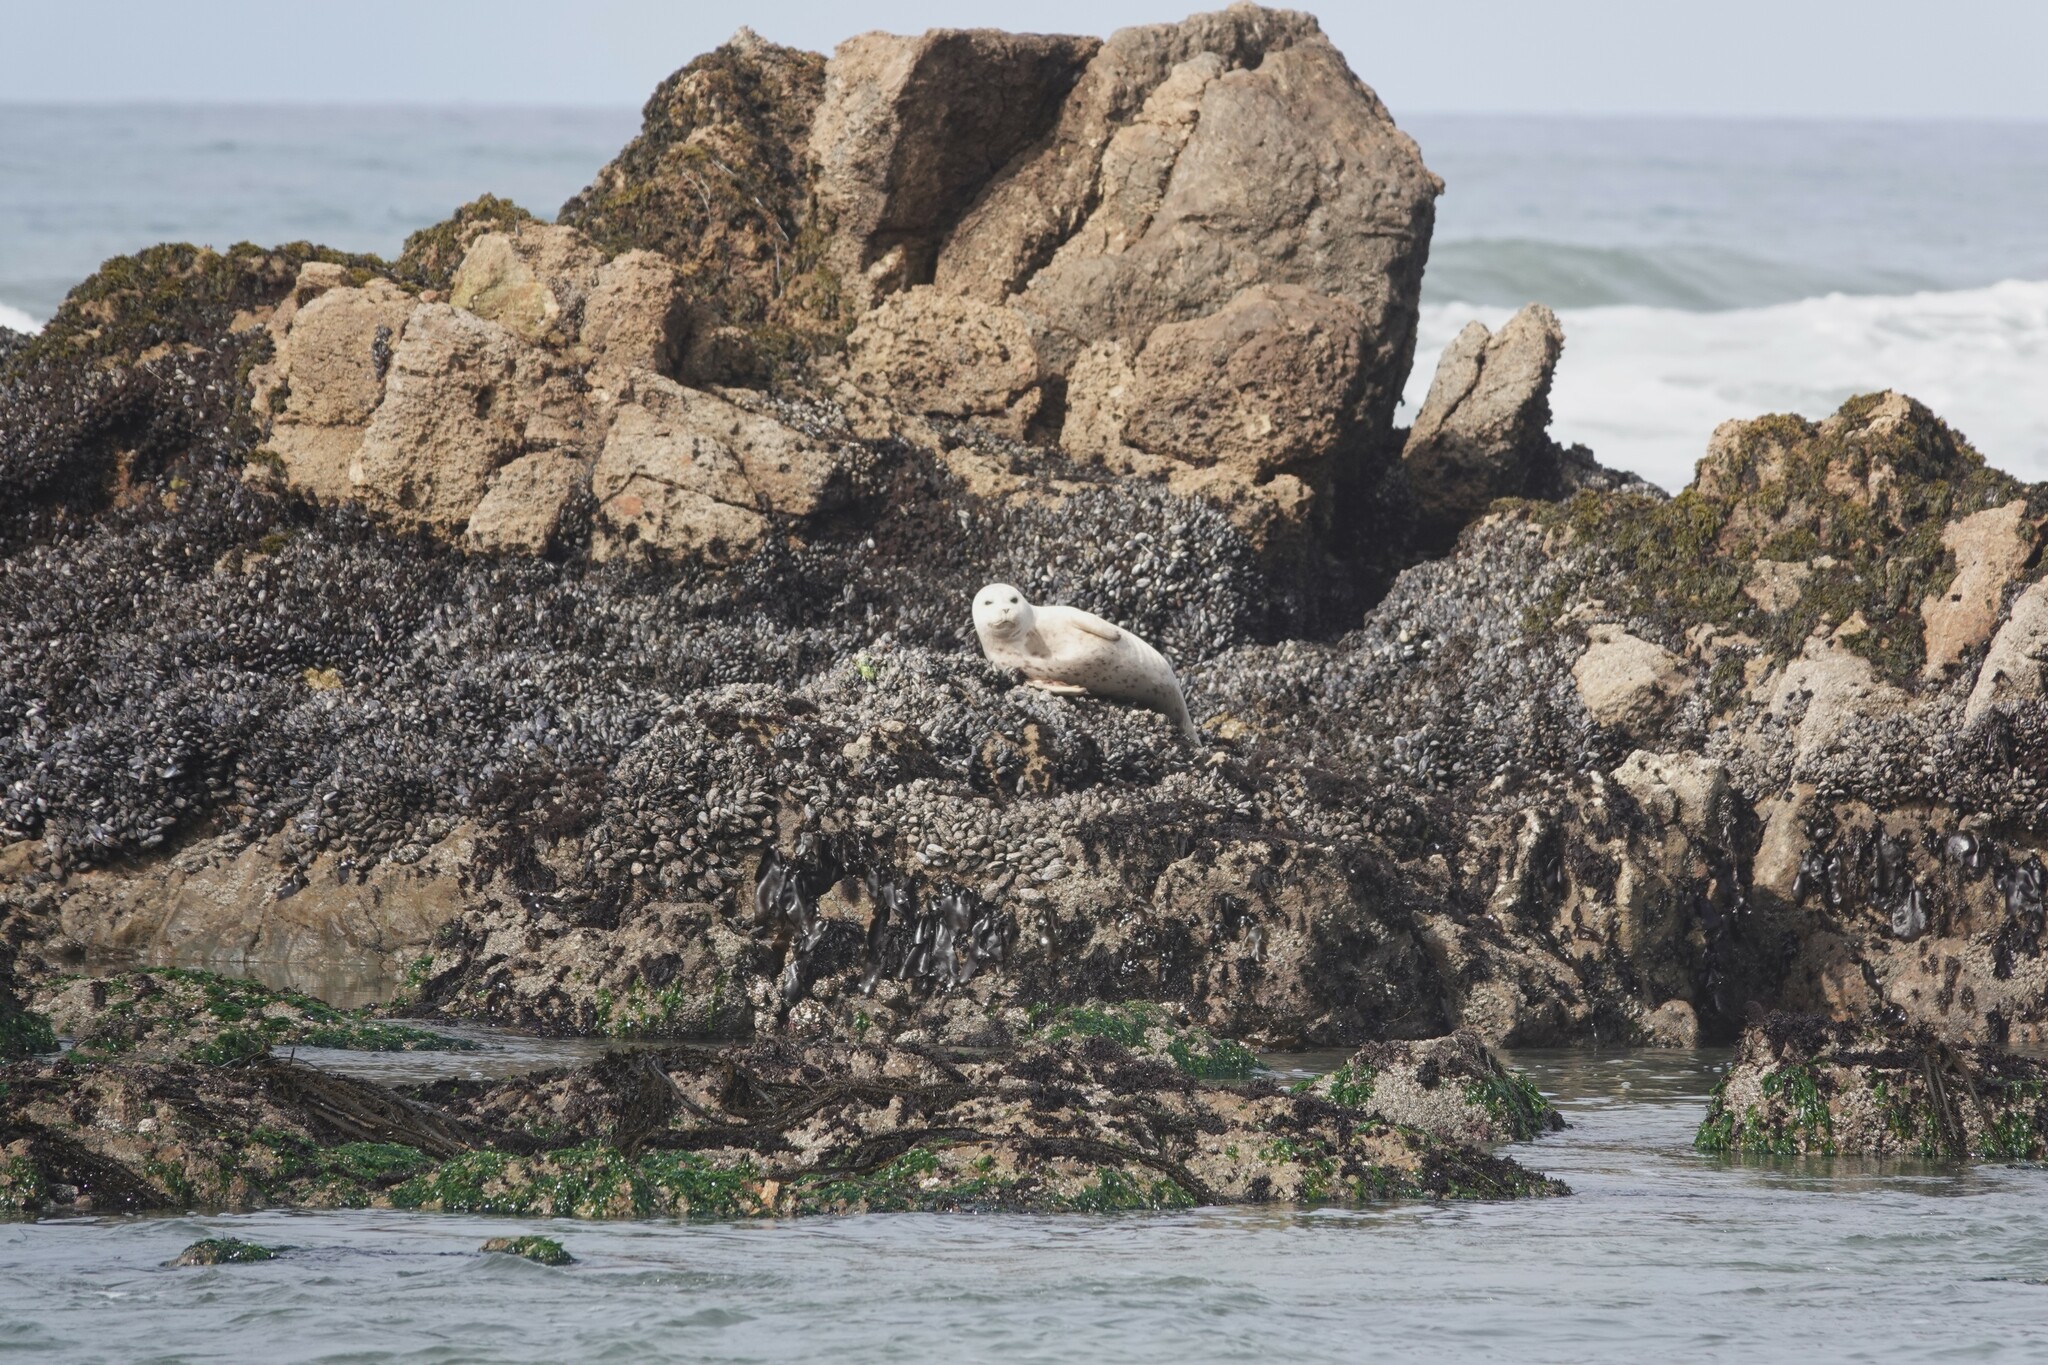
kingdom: Animalia
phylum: Chordata
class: Mammalia
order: Carnivora
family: Phocidae
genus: Phoca
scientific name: Phoca vitulina
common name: Harbor seal
